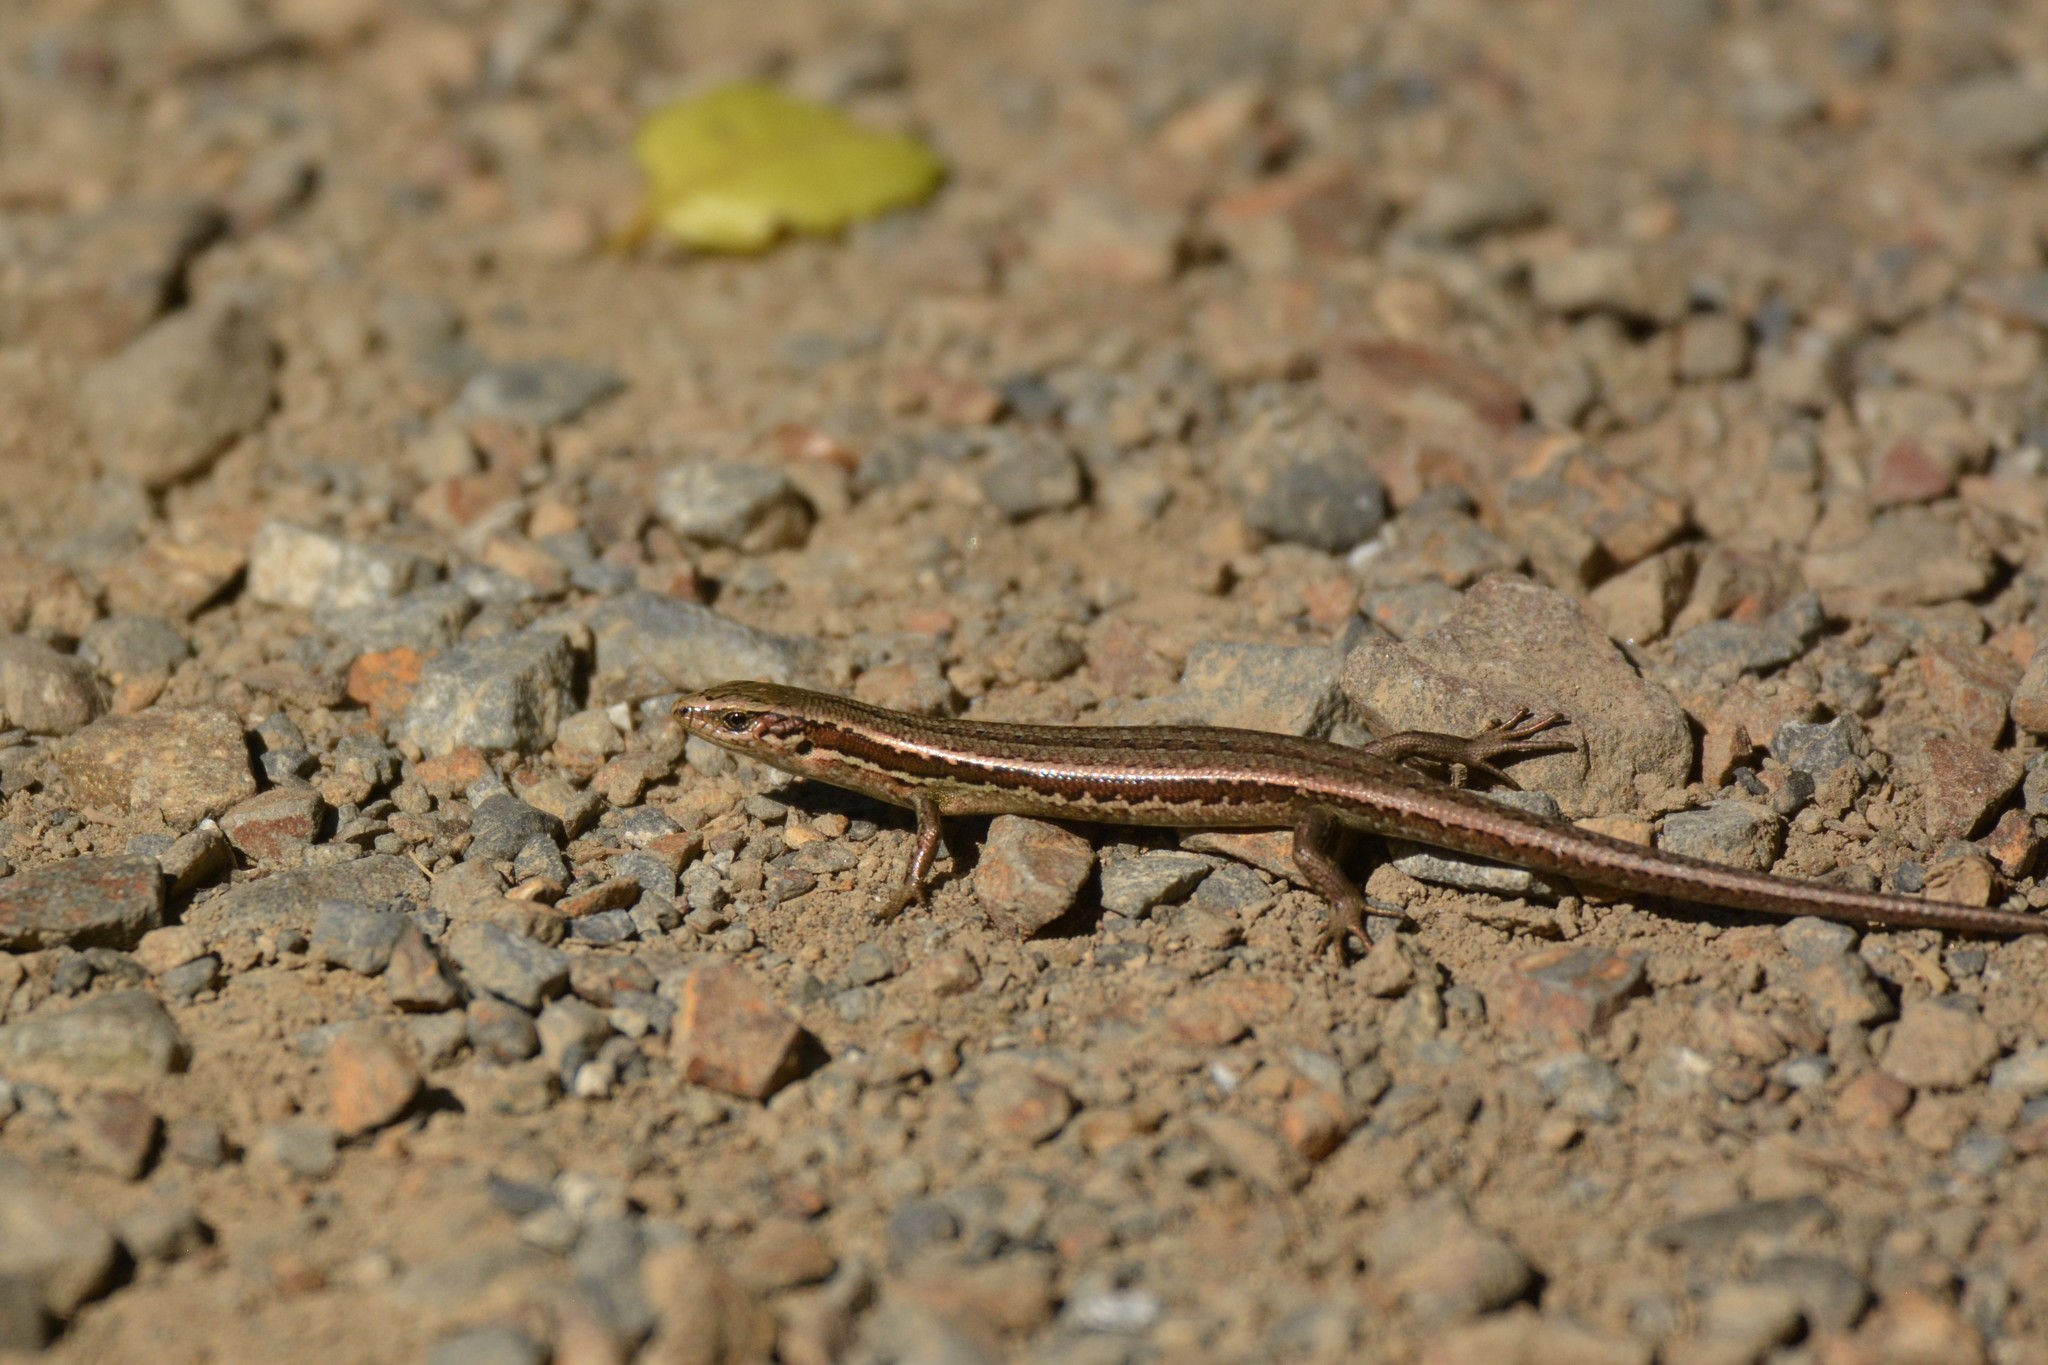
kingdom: Animalia
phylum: Chordata
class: Squamata
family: Scincidae
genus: Oligosoma
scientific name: Oligosoma polychroma
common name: Common new zealand skink
